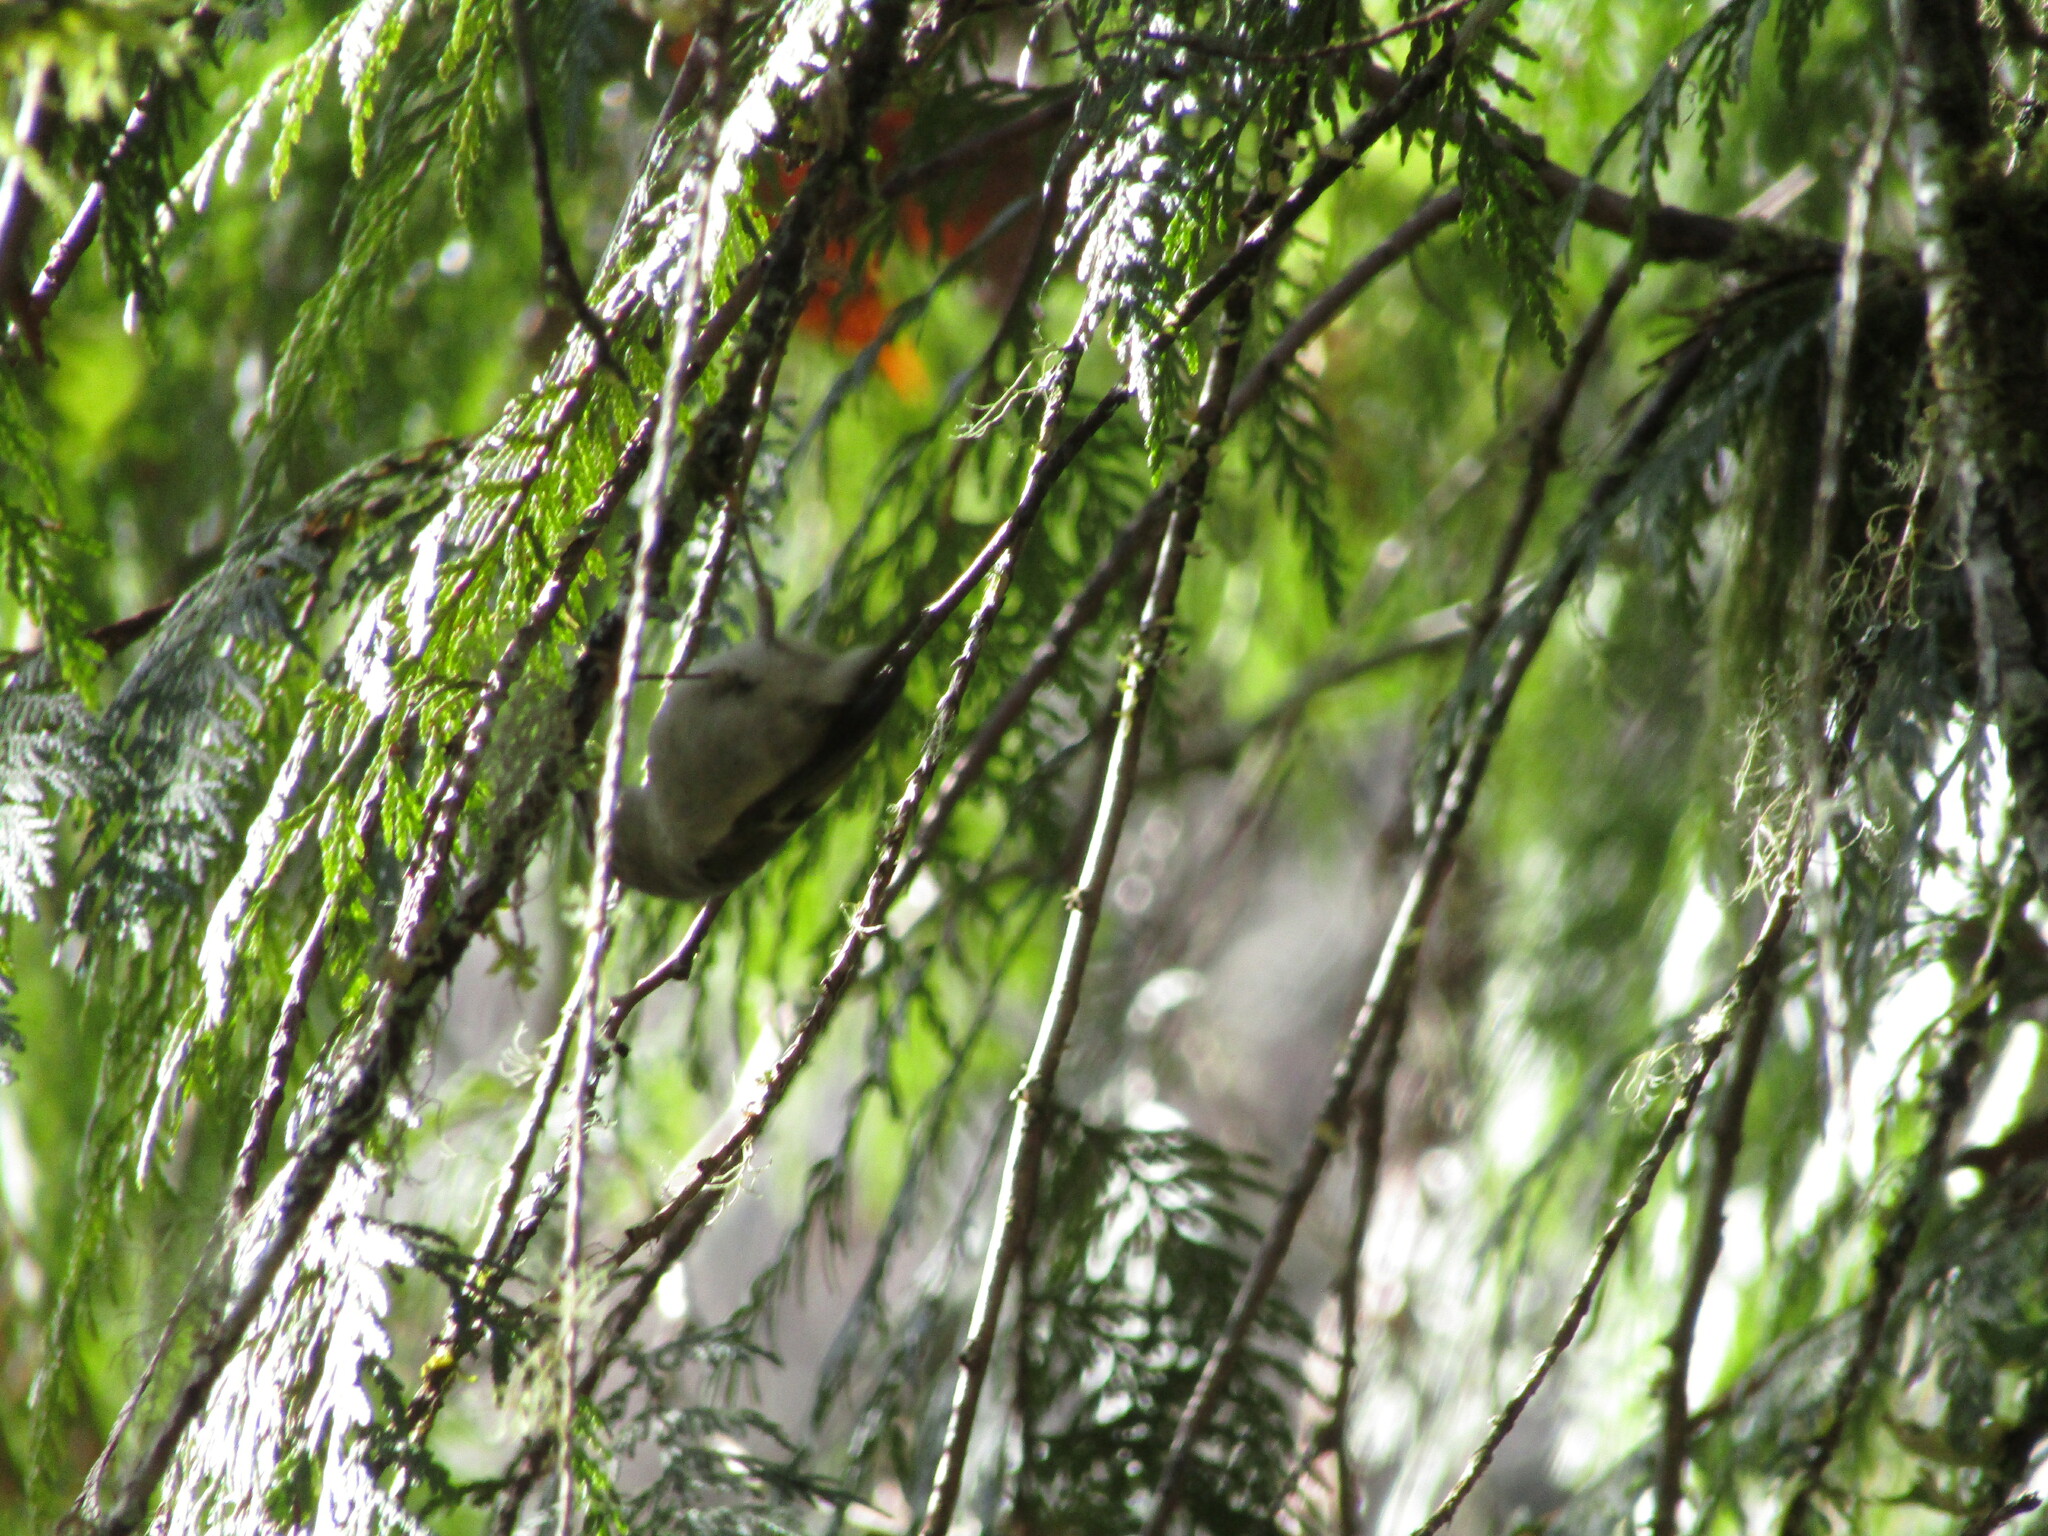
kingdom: Animalia
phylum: Chordata
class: Aves
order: Passeriformes
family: Regulidae
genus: Regulus
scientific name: Regulus satrapa
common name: Golden-crowned kinglet
